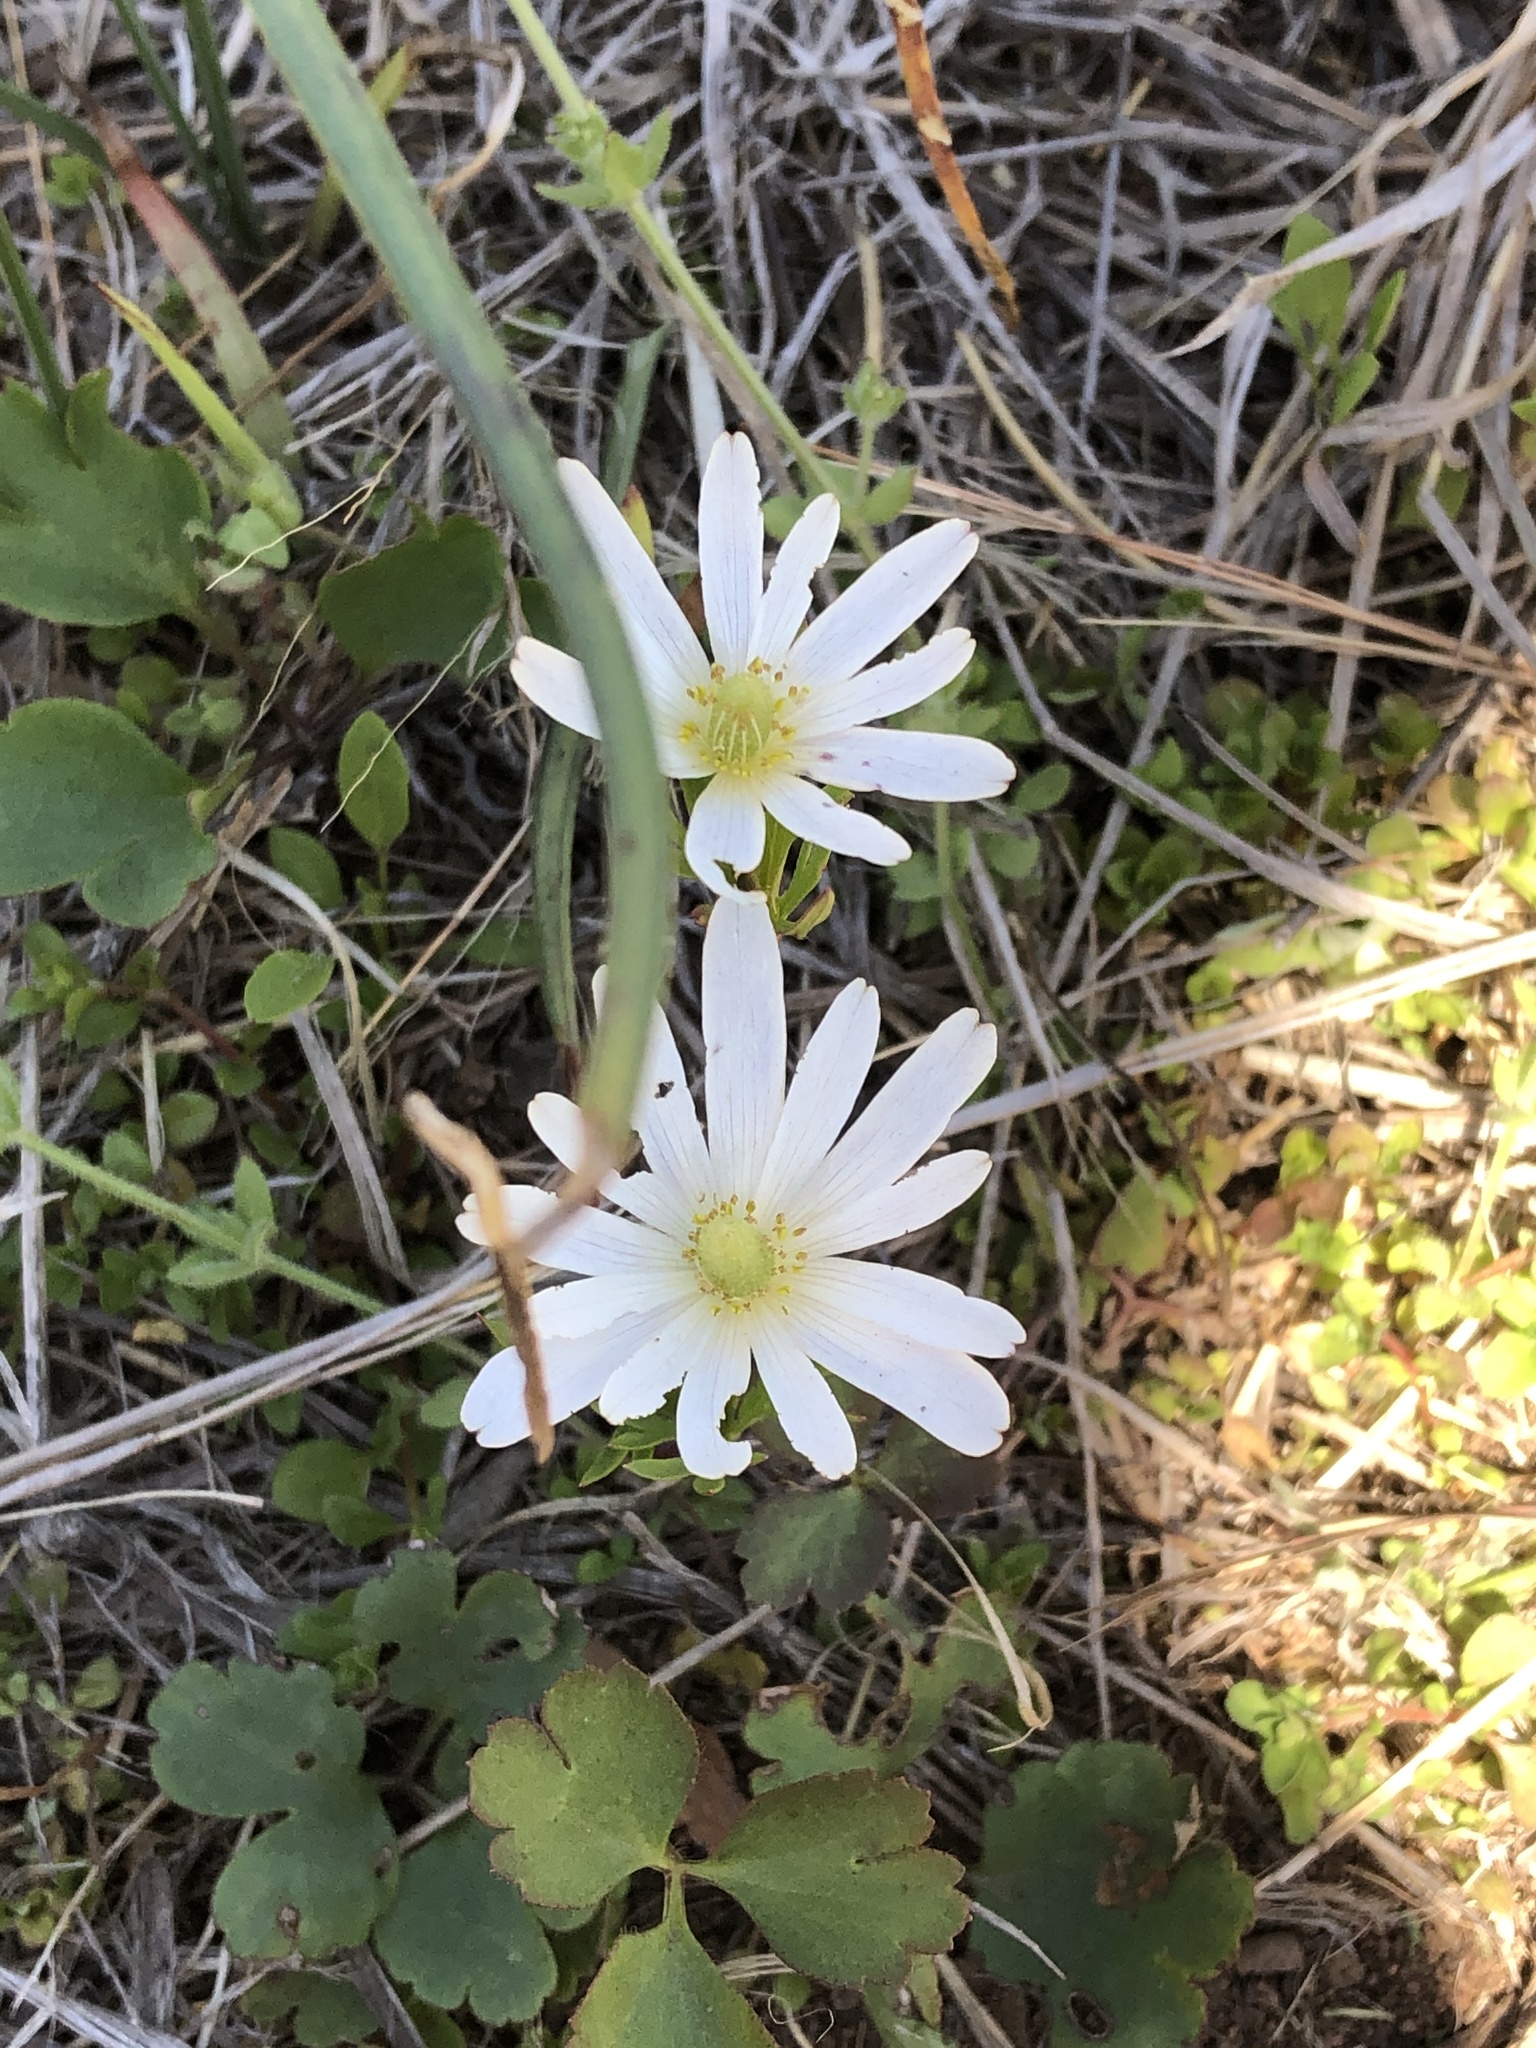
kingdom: Plantae
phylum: Tracheophyta
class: Magnoliopsida
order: Ranunculales
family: Ranunculaceae
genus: Anemone
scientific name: Anemone berlandieri
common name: Ten-petal anemone
